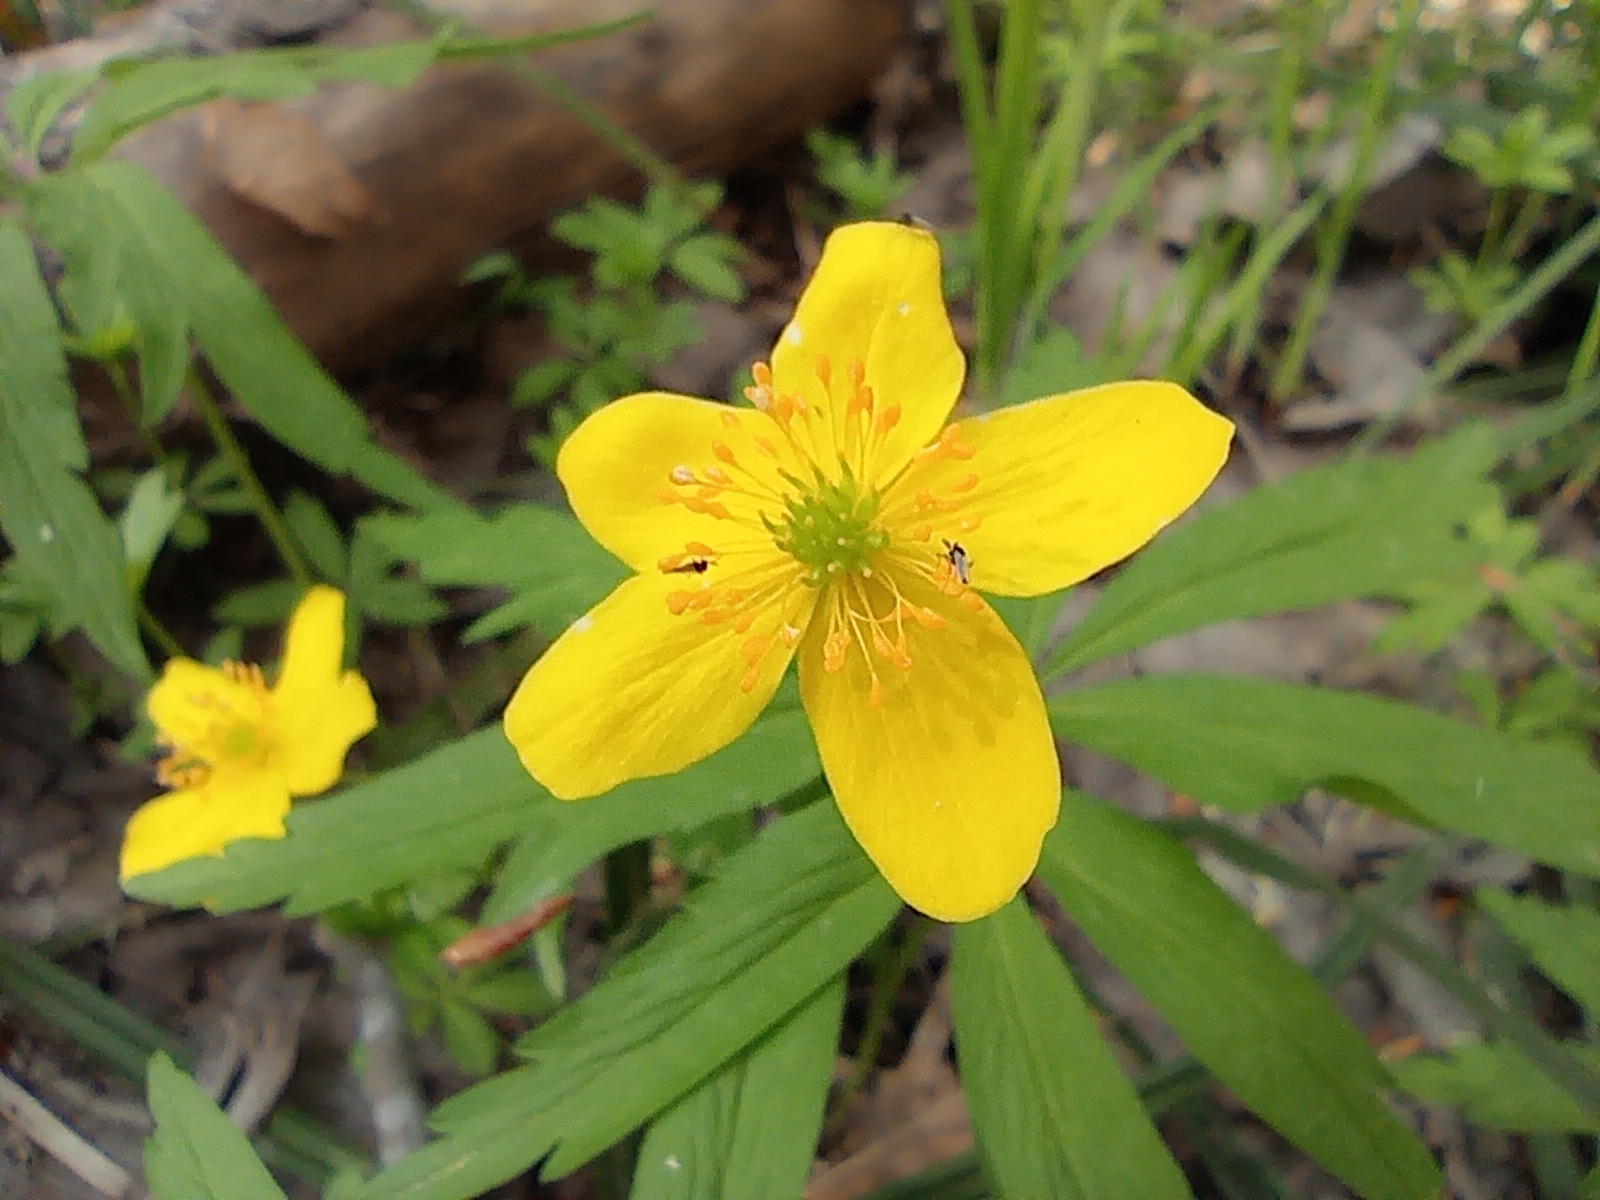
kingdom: Plantae
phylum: Tracheophyta
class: Magnoliopsida
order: Ranunculales
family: Ranunculaceae
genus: Anemone
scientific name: Anemone ranunculoides
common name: Yellow anemone
